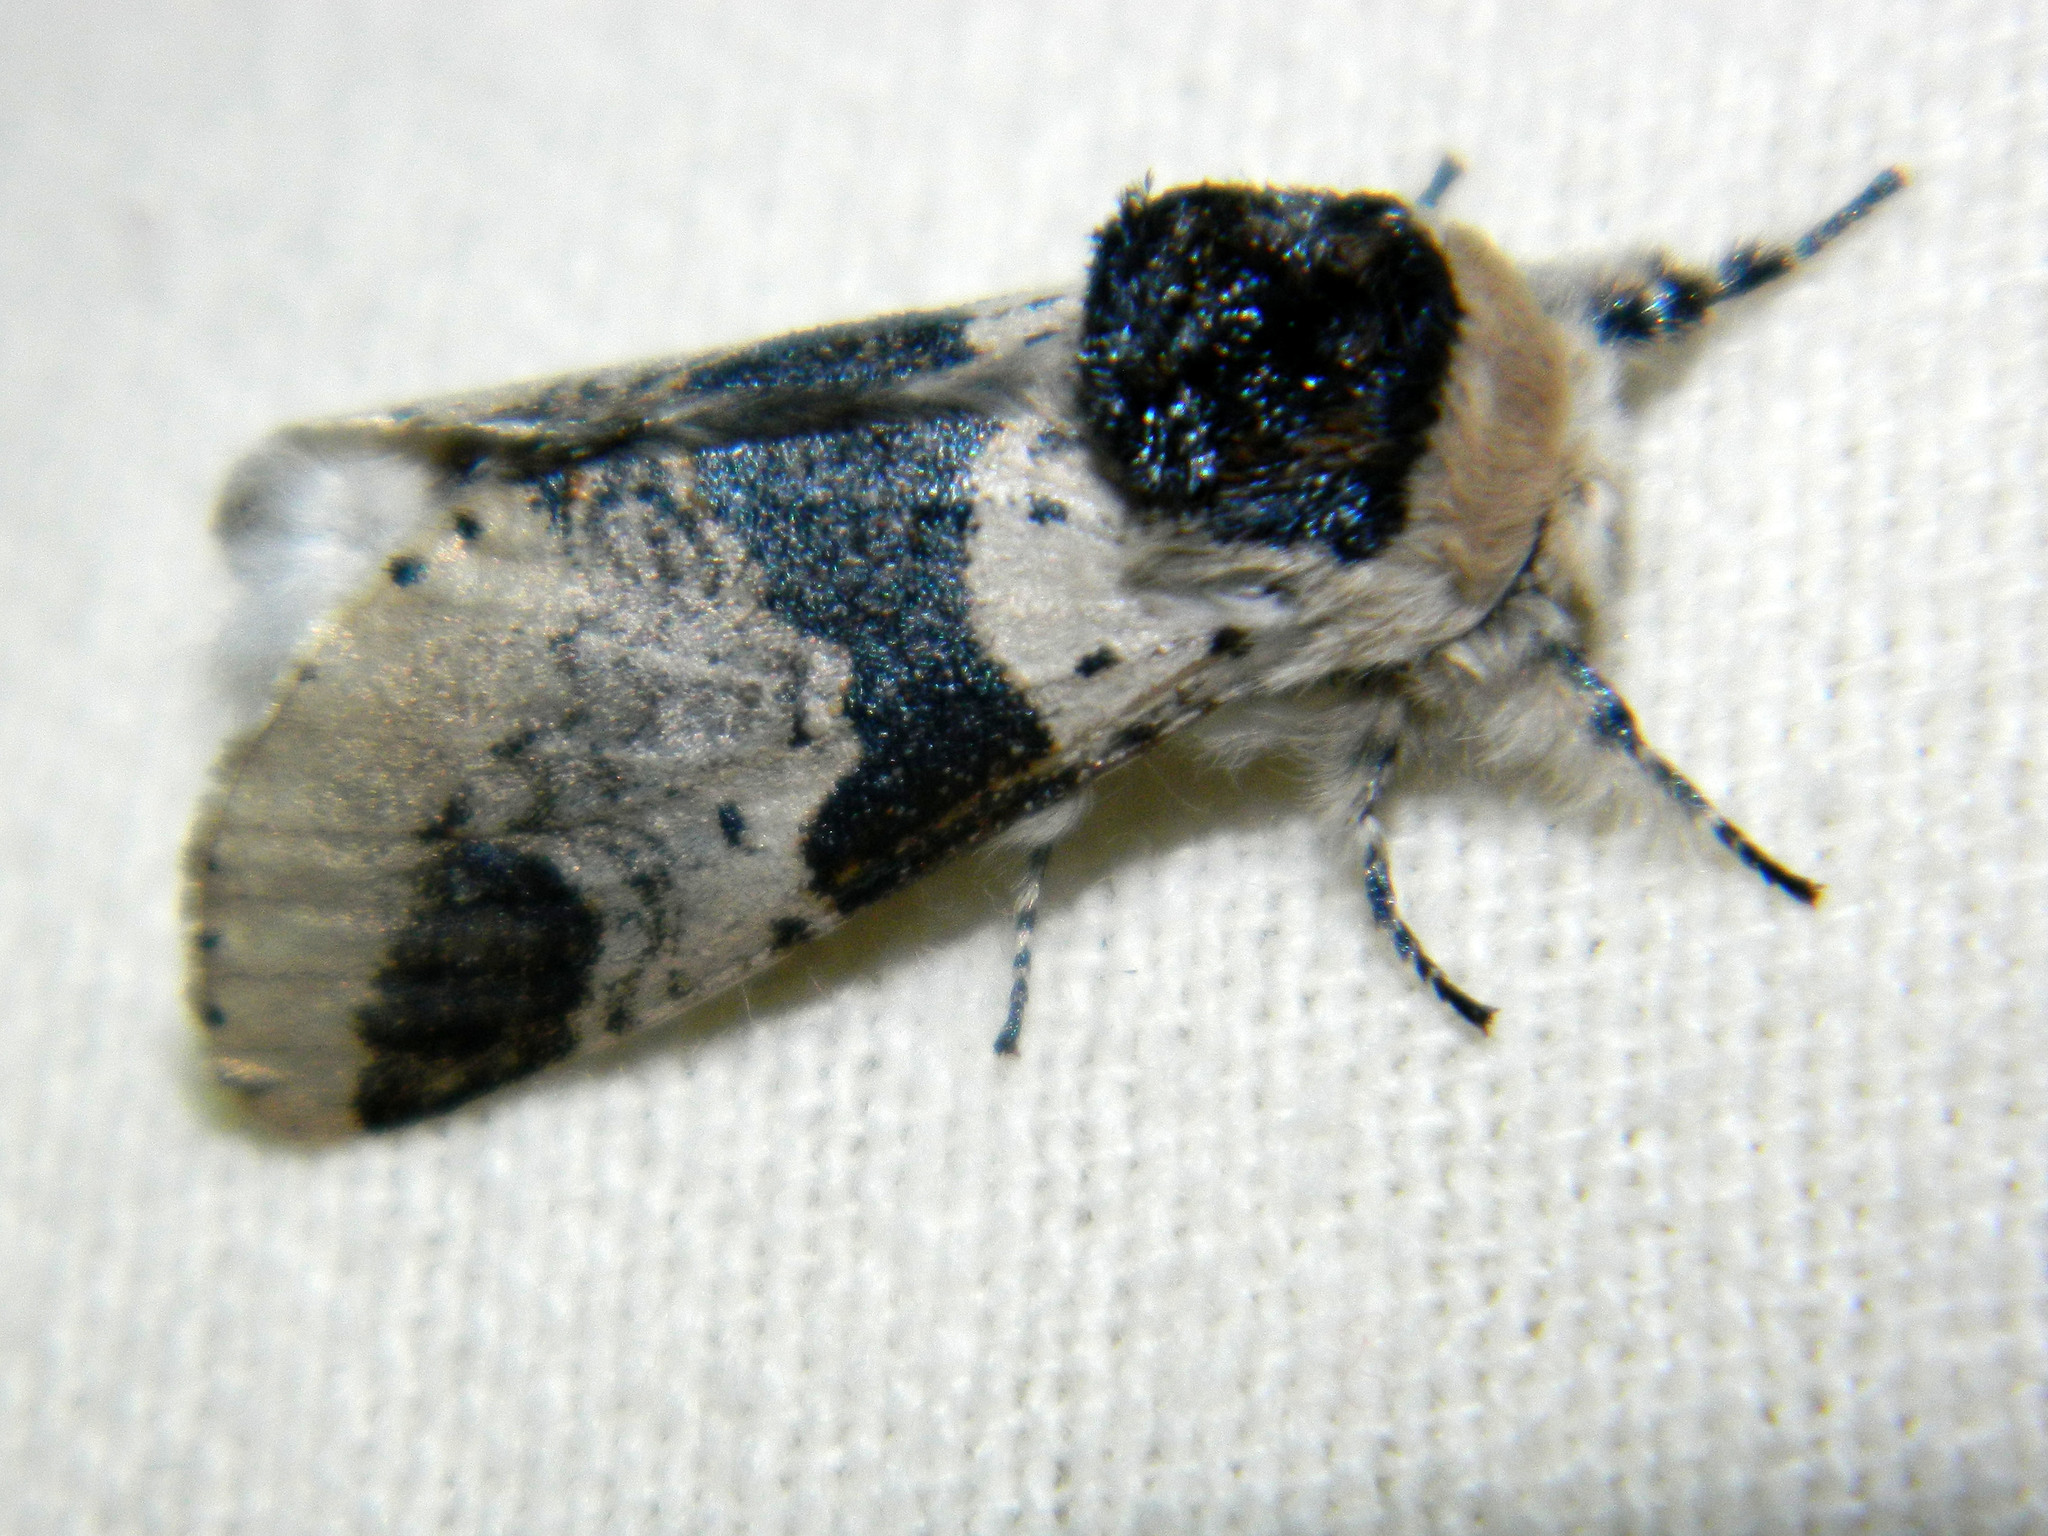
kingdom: Animalia
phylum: Arthropoda
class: Insecta
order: Lepidoptera
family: Notodontidae
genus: Furcula
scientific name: Furcula modesta
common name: Modest furcula moth
